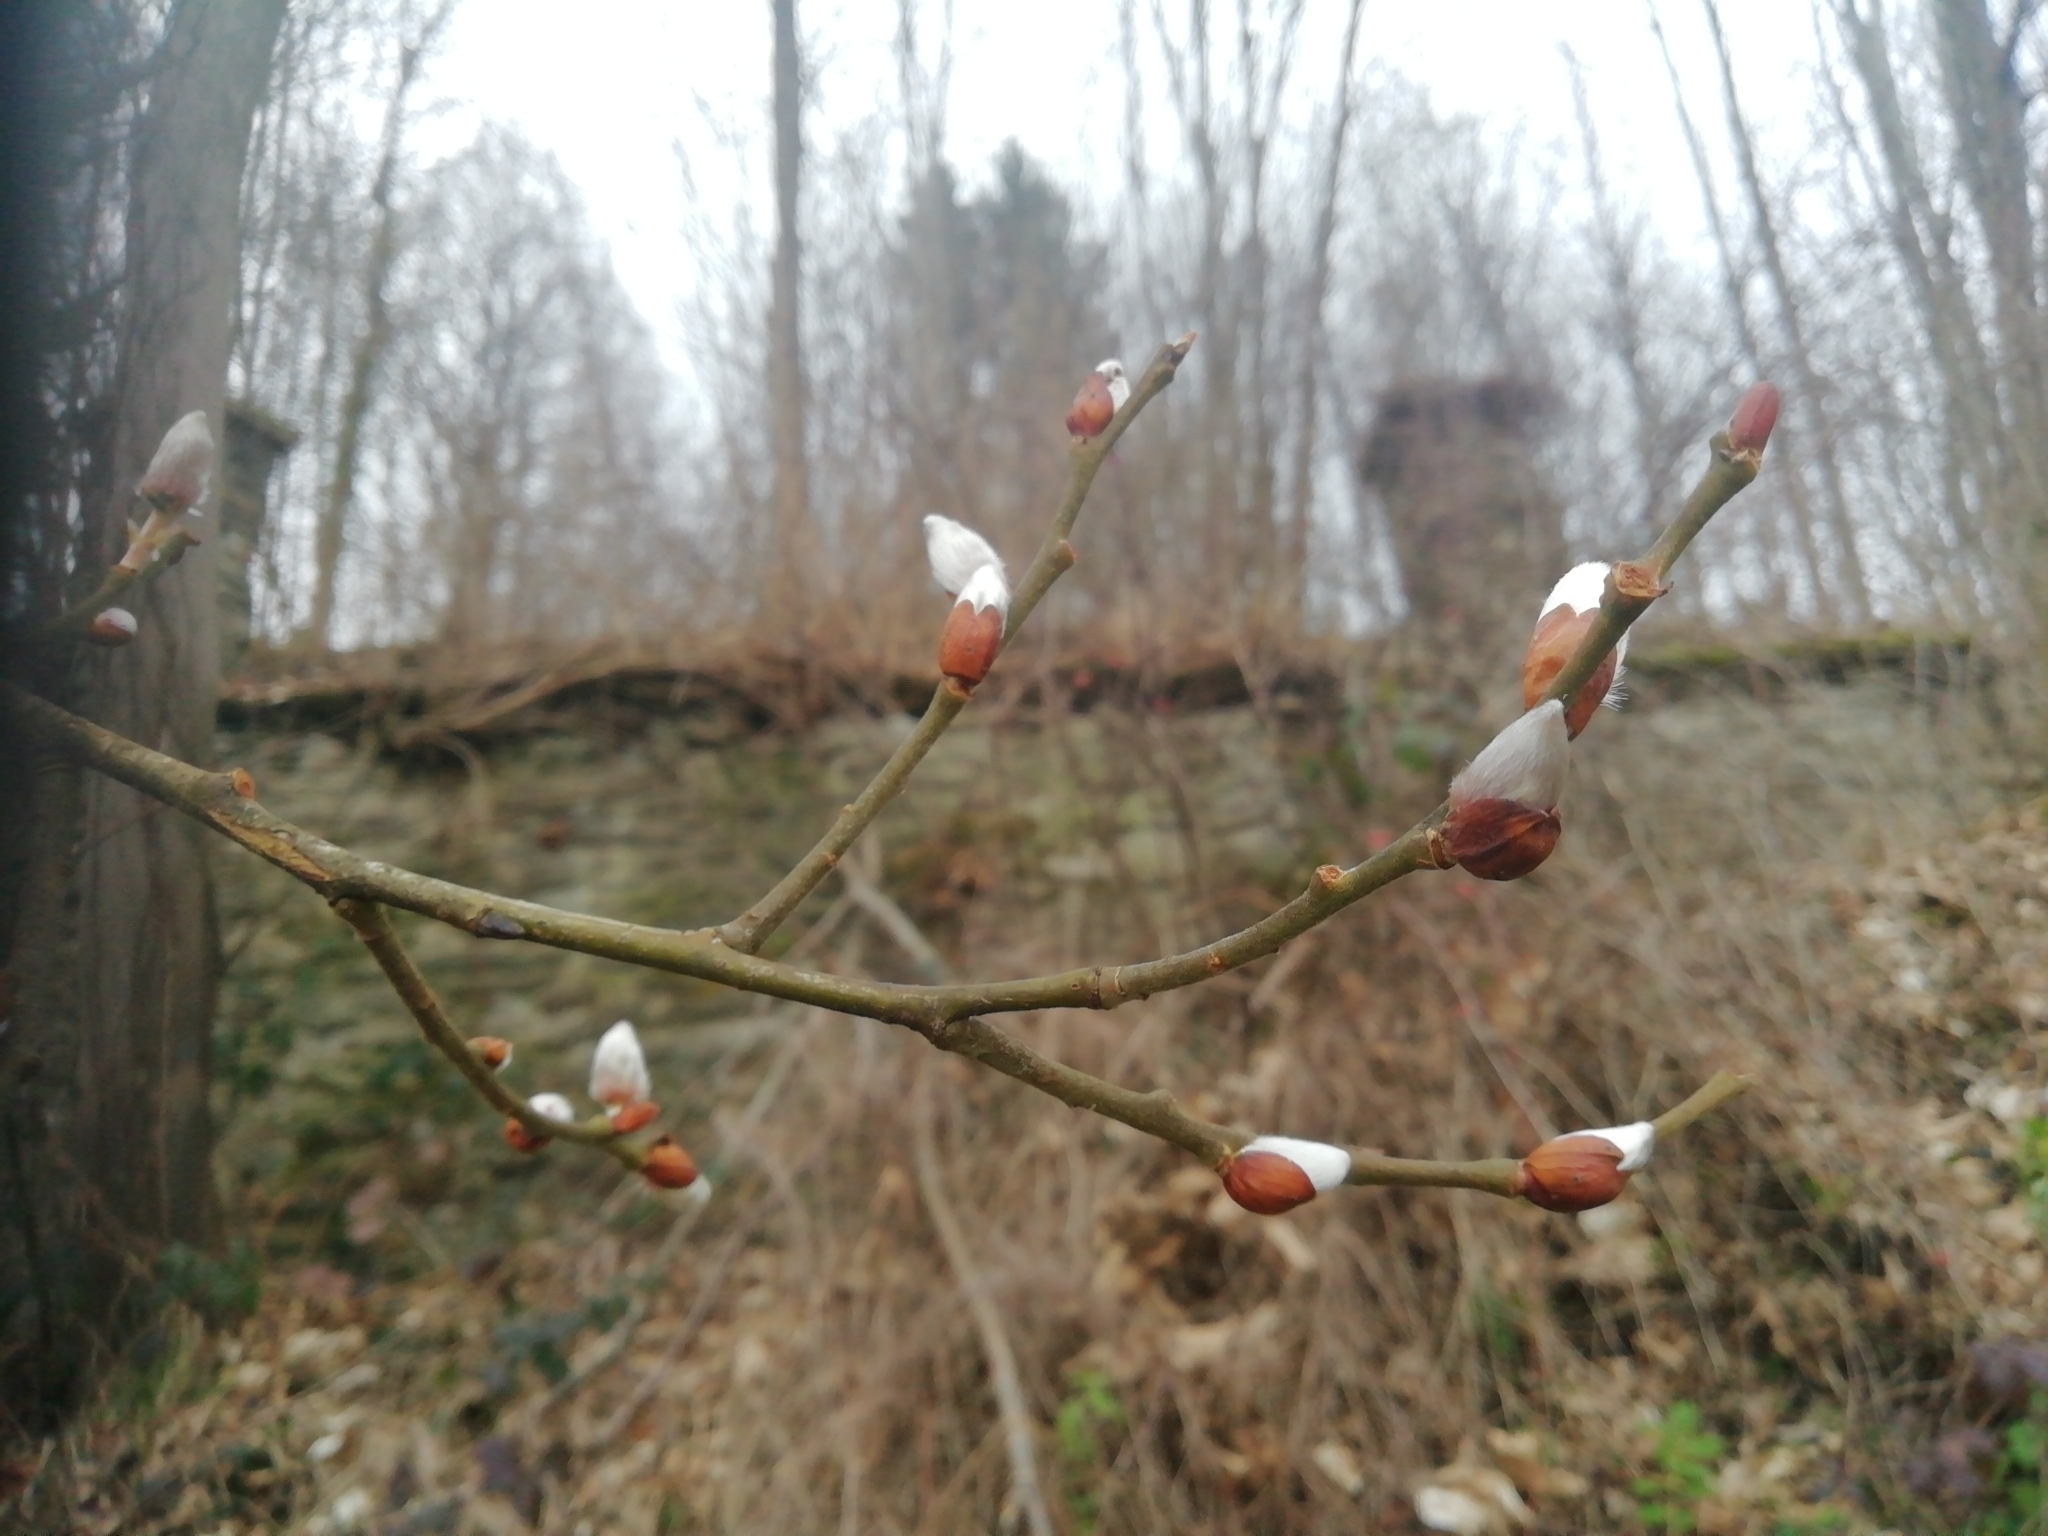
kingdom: Plantae
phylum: Tracheophyta
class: Magnoliopsida
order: Malpighiales
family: Salicaceae
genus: Salix
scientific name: Salix caprea
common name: Goat willow
